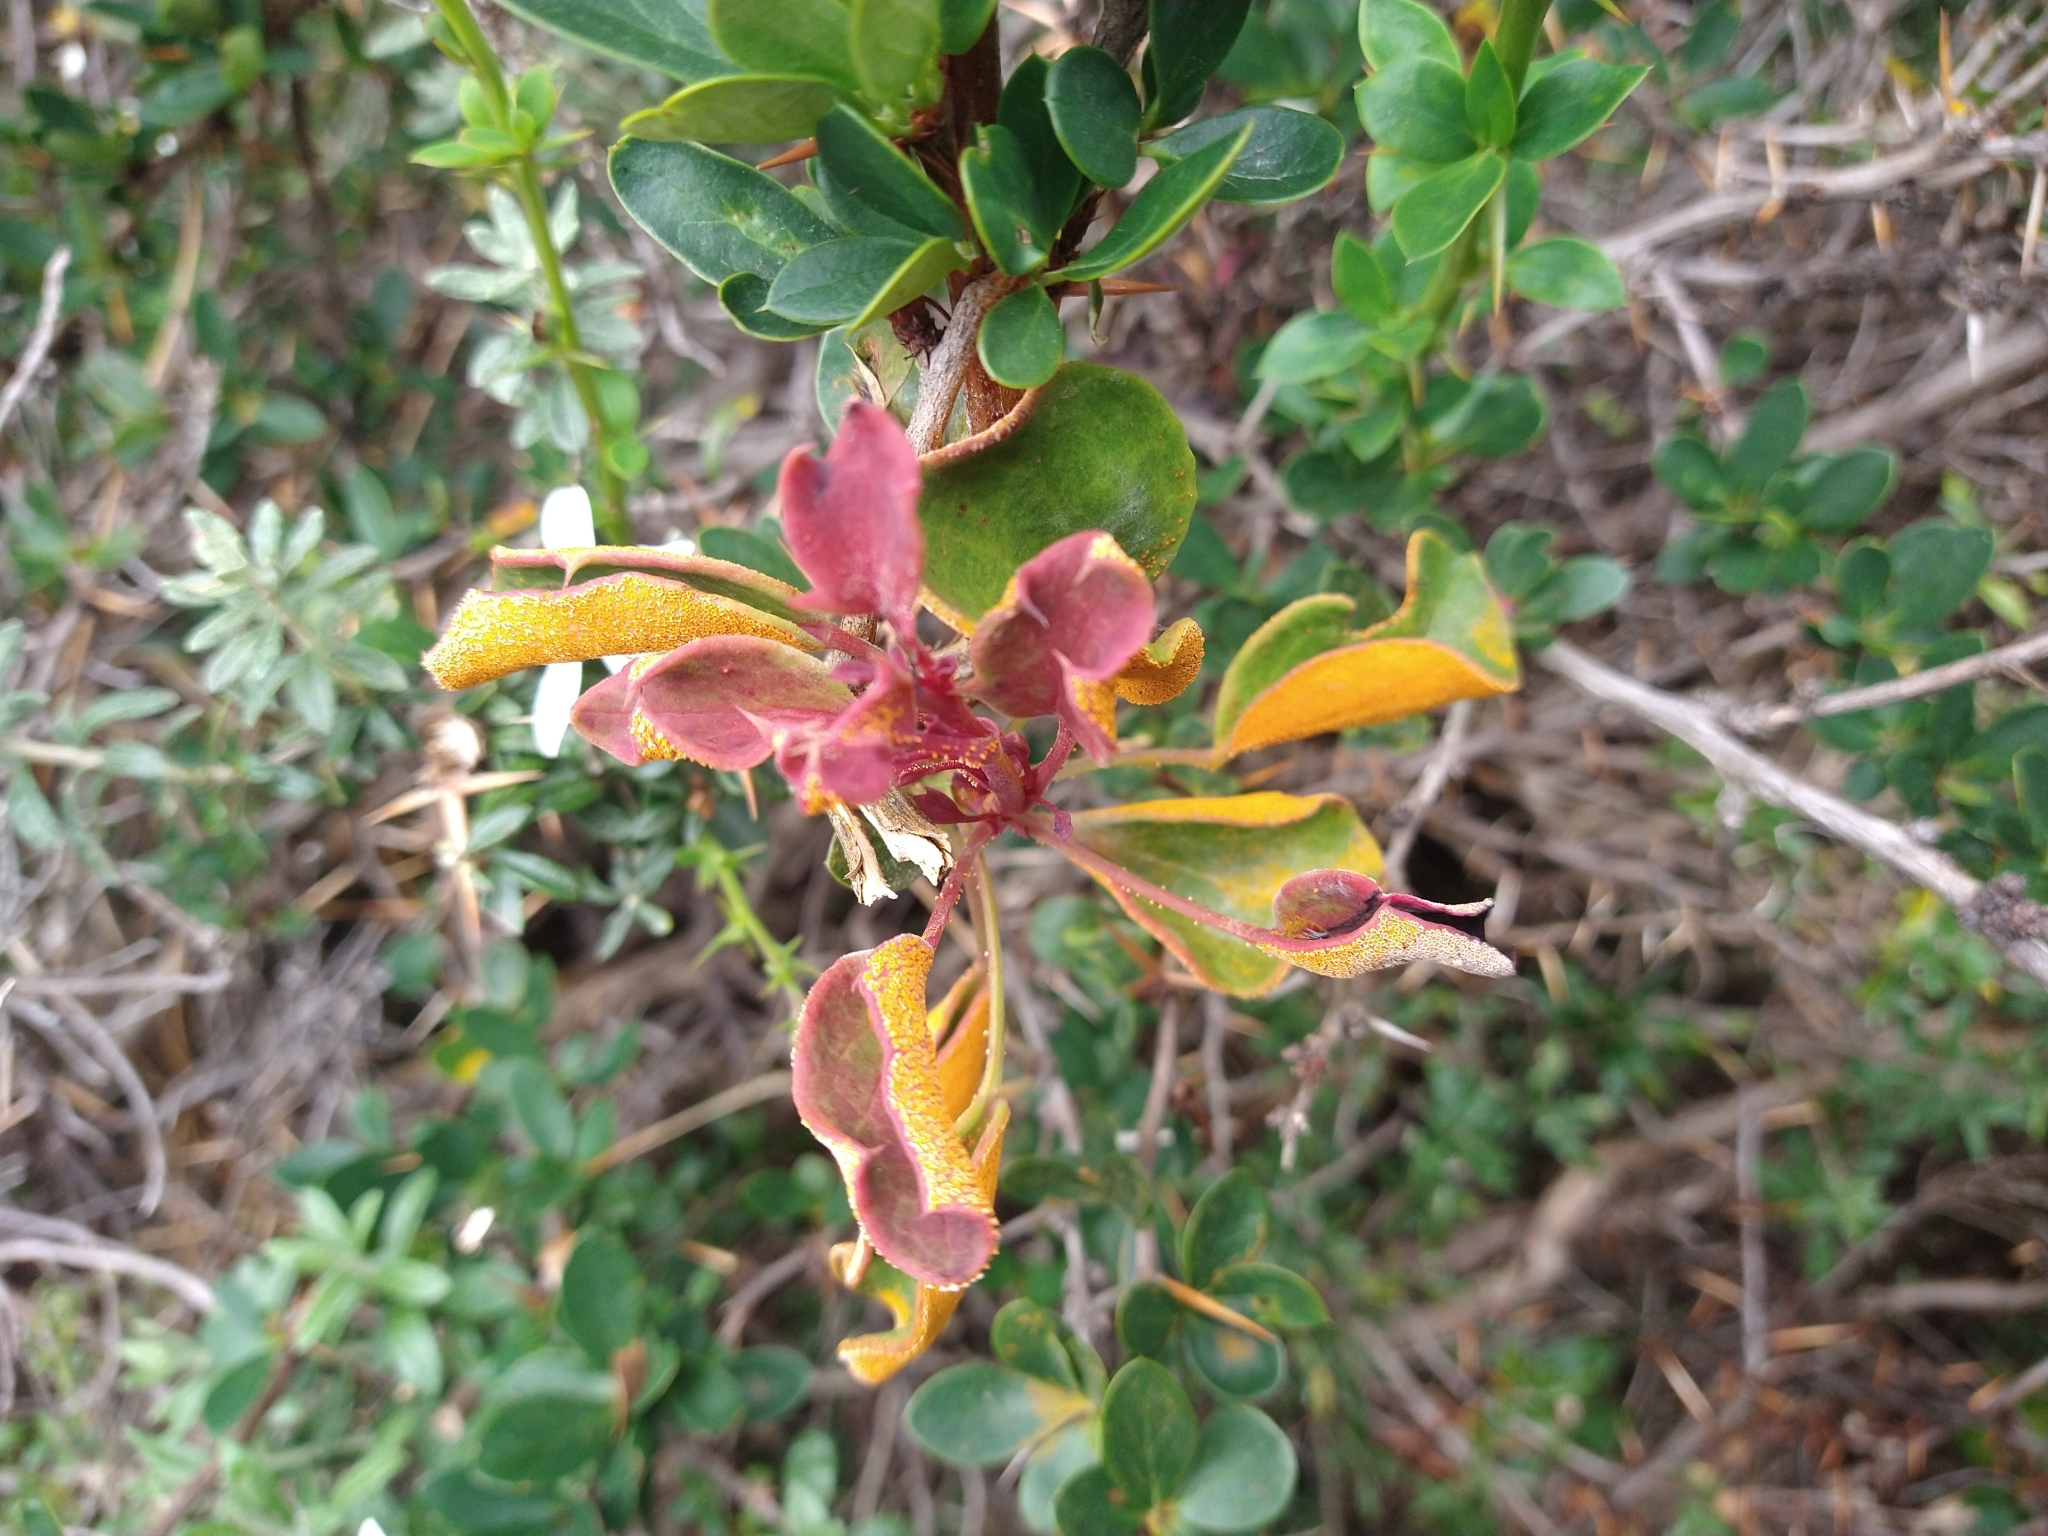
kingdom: Fungi
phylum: Basidiomycota
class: Pucciniomycetes
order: Pucciniales
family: Pucciniaceae
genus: Puccinia
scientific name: Puccinia magellanica
